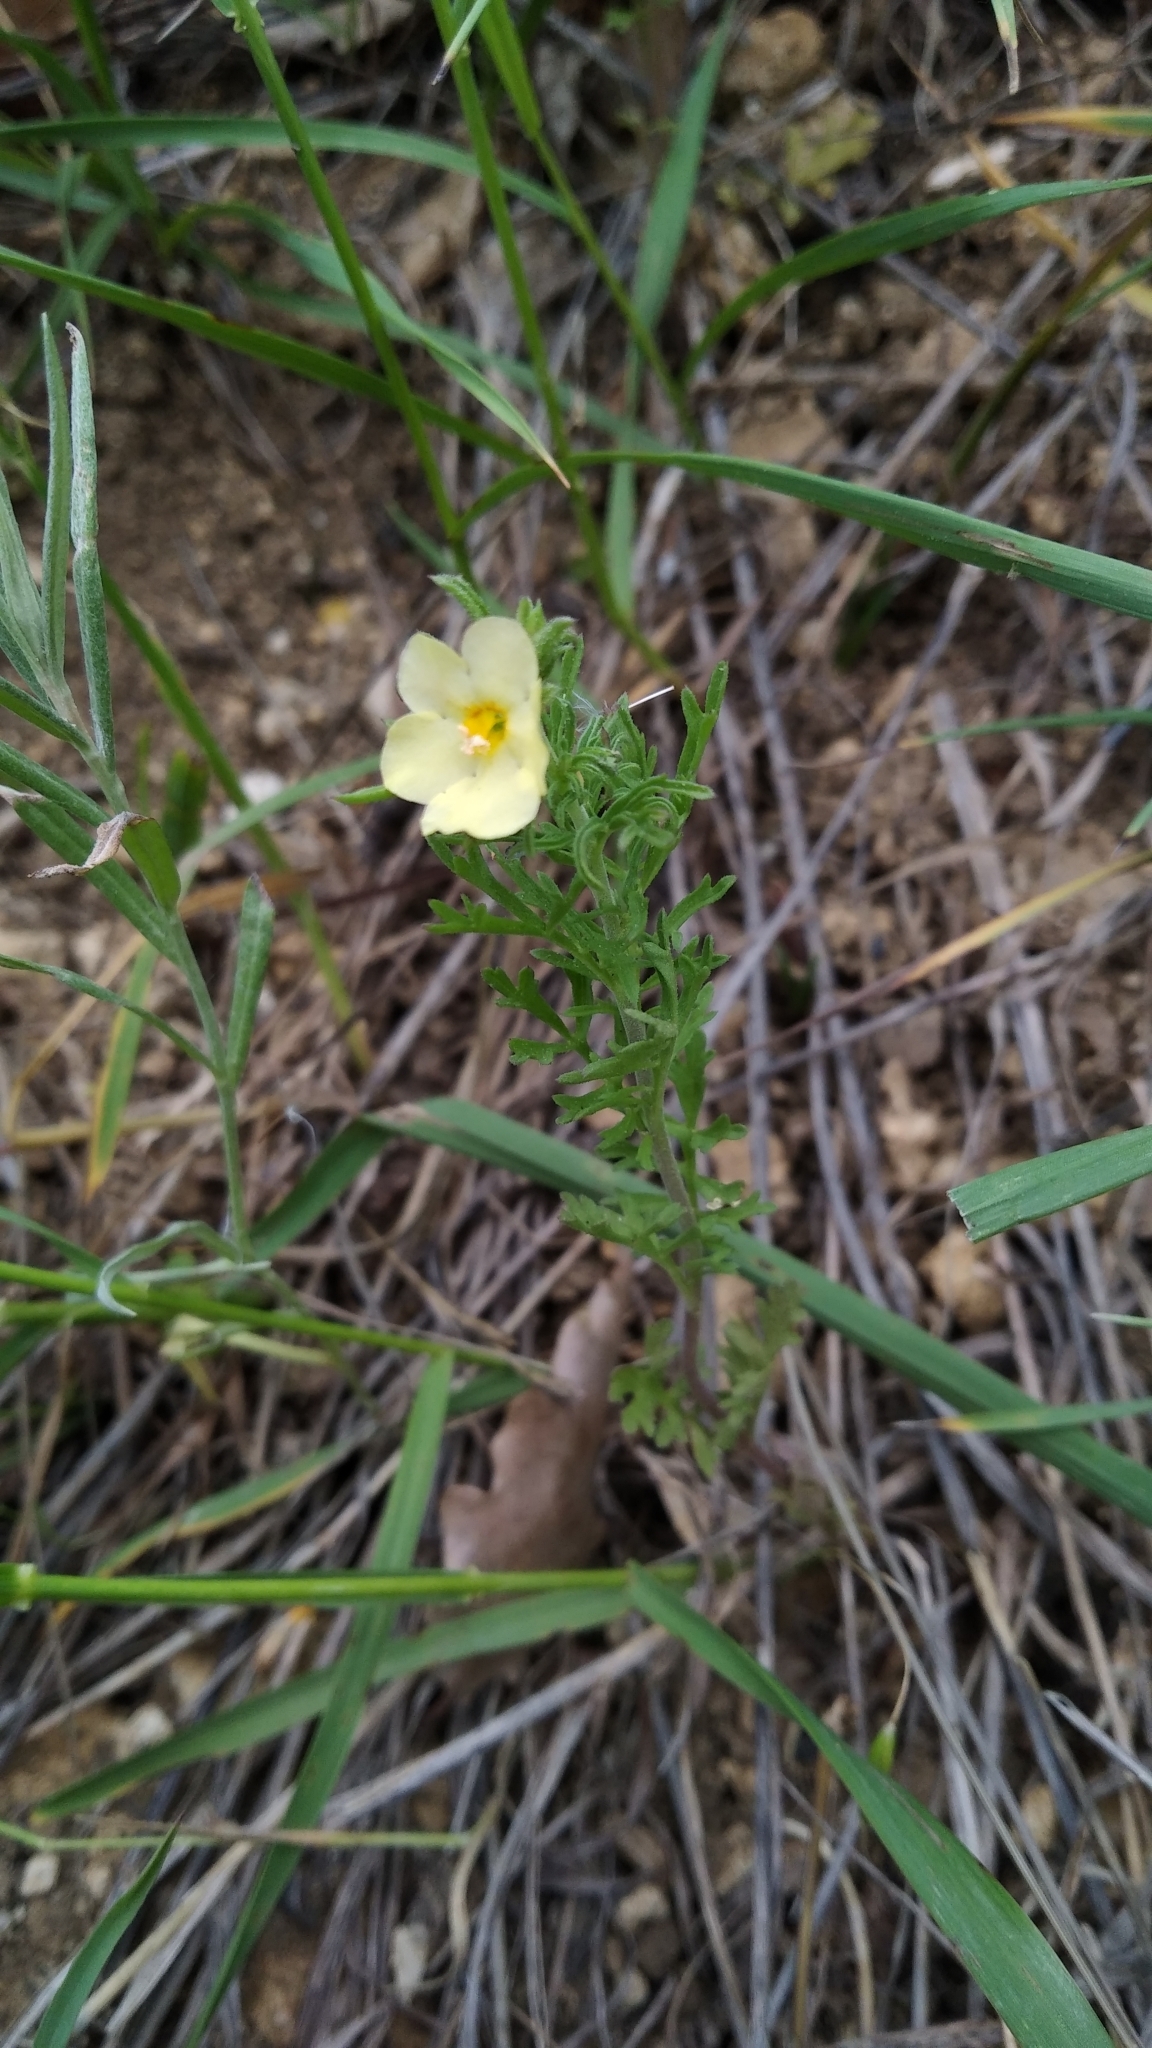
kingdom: Plantae
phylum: Tracheophyta
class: Magnoliopsida
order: Lamiales
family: Scrophulariaceae
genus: Verbascum
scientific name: Verbascum orientale
